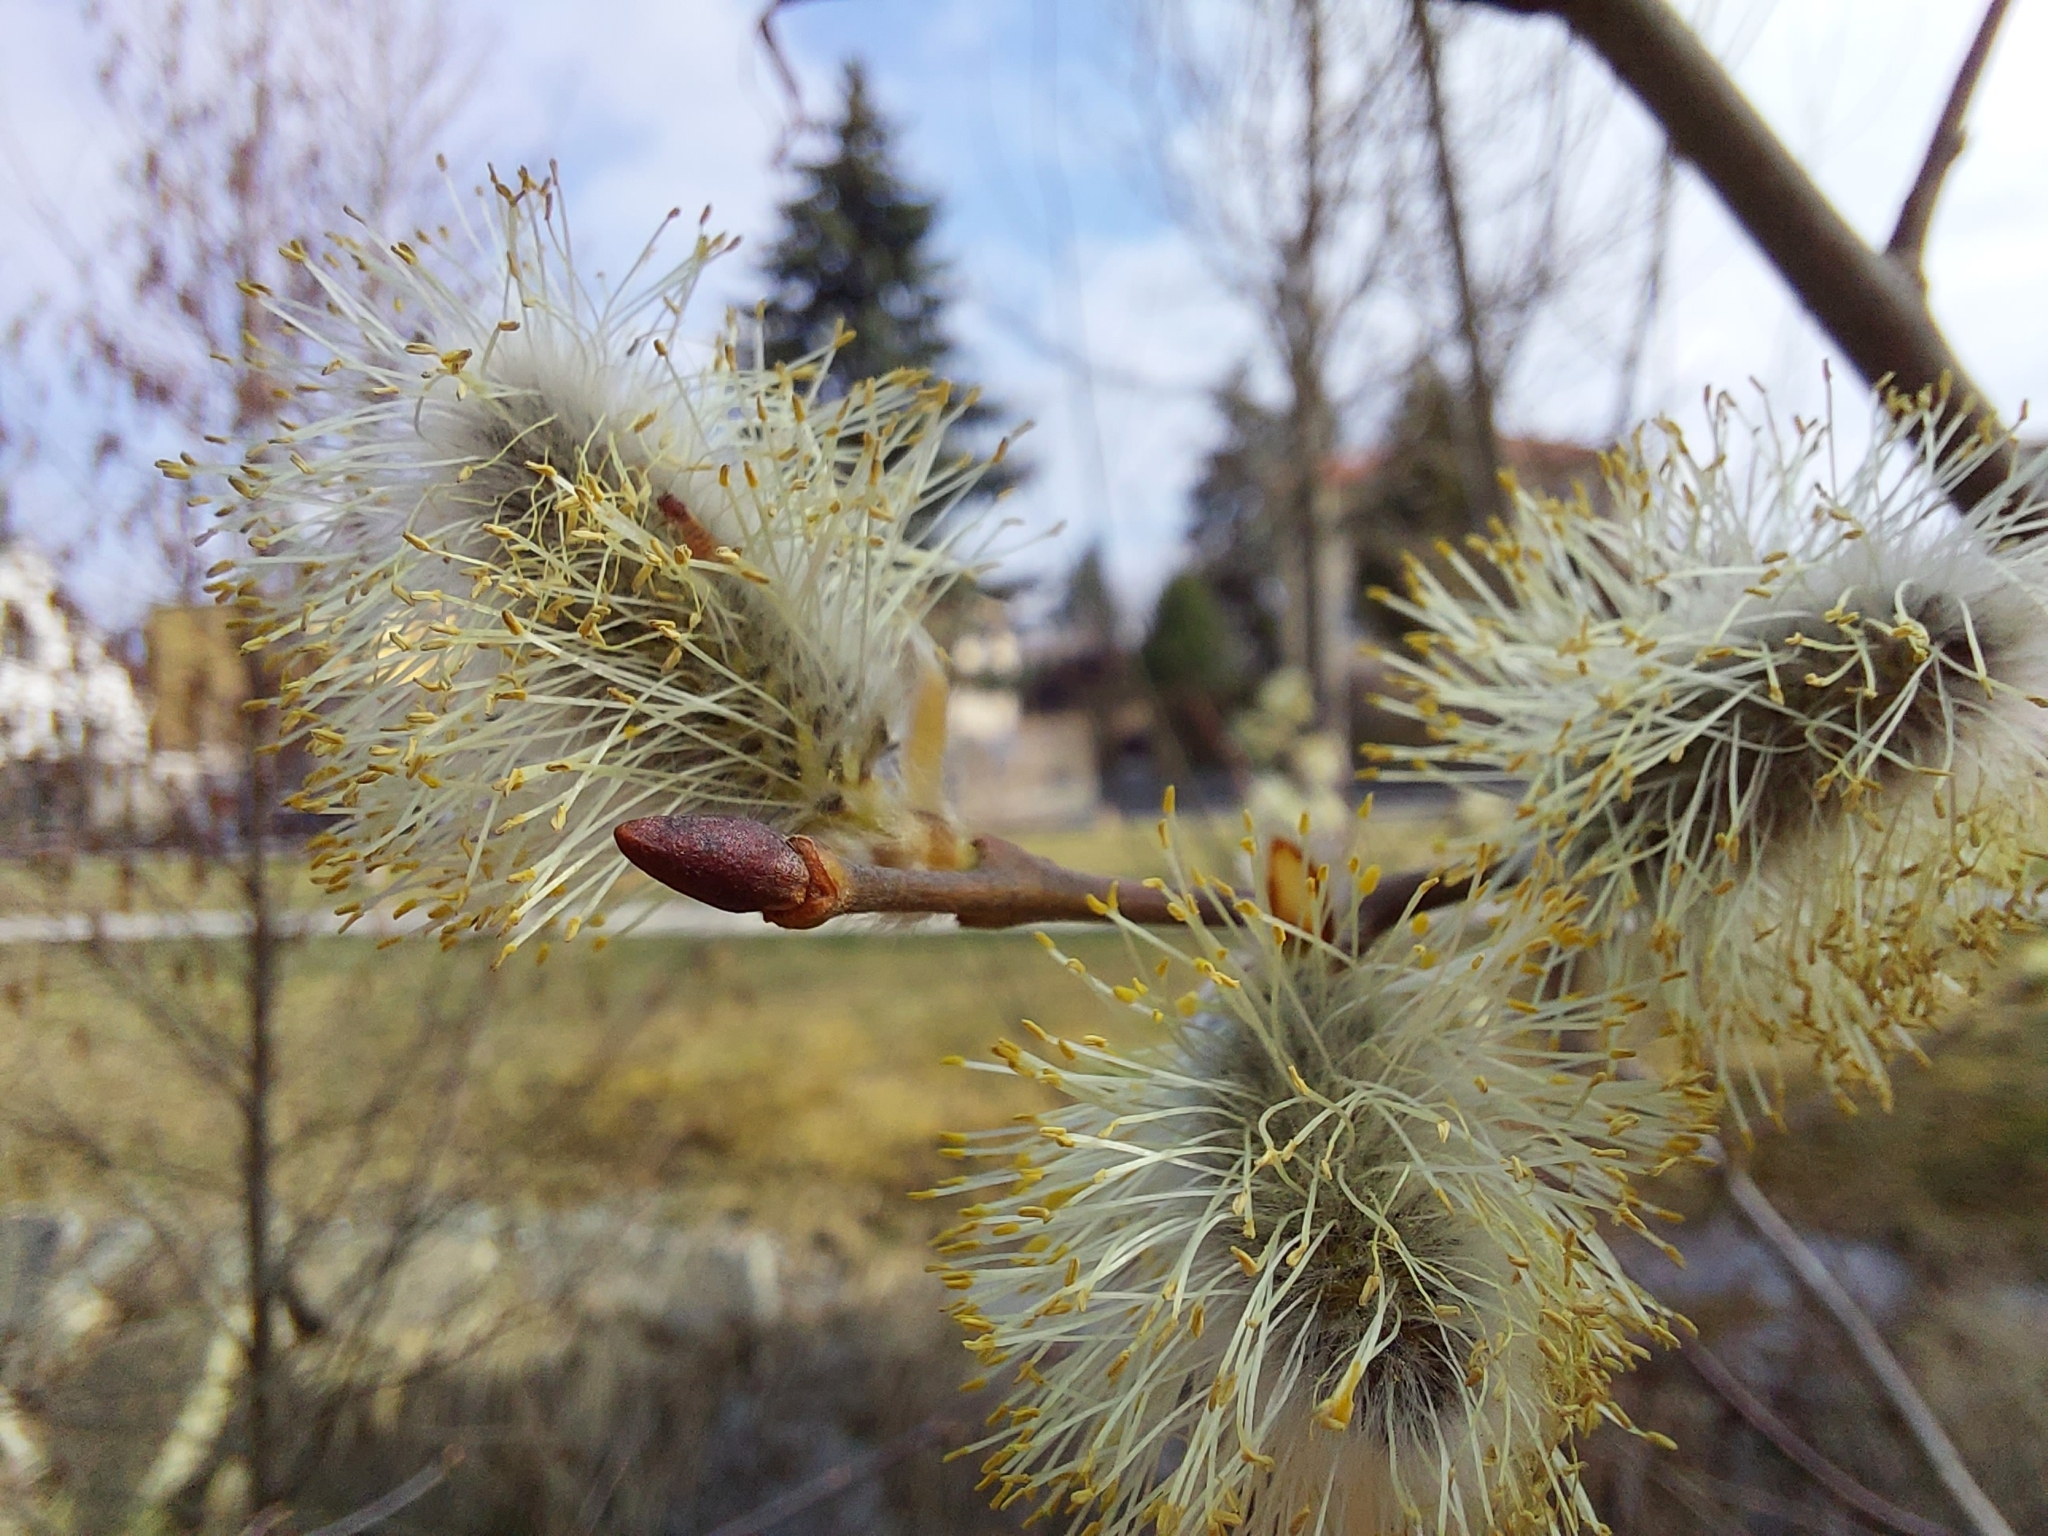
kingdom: Plantae
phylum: Tracheophyta
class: Magnoliopsida
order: Malpighiales
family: Salicaceae
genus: Salix
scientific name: Salix caprea
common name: Goat willow
